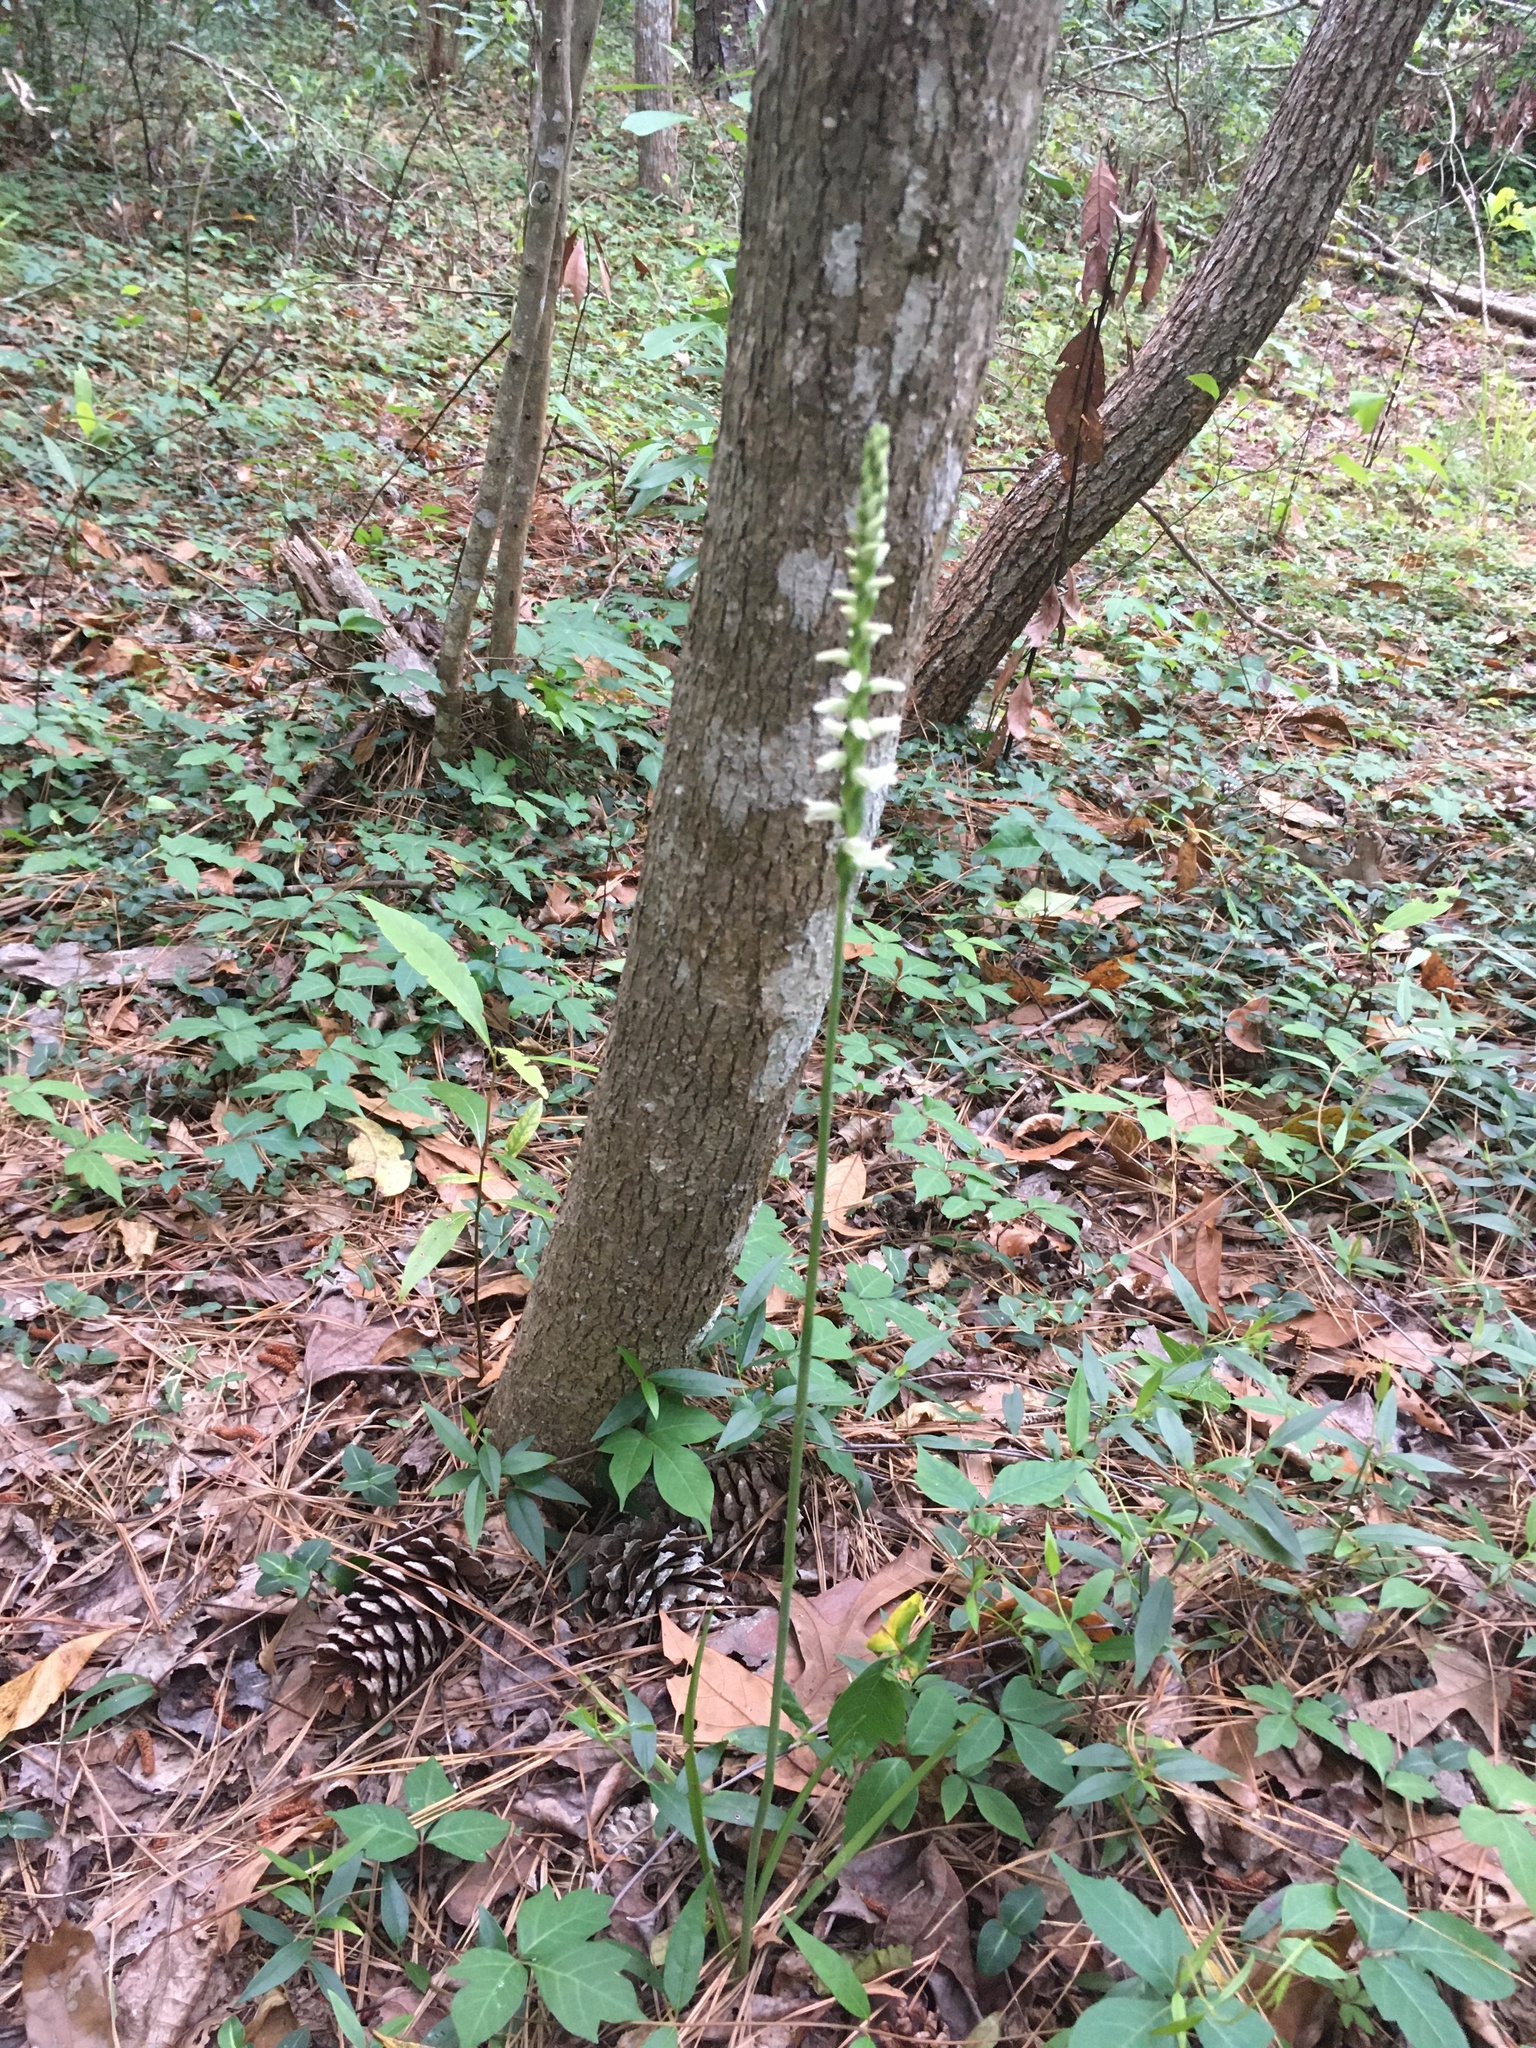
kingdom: Plantae
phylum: Tracheophyta
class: Liliopsida
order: Asparagales
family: Orchidaceae
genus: Spiranthes
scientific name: Spiranthes praecox
